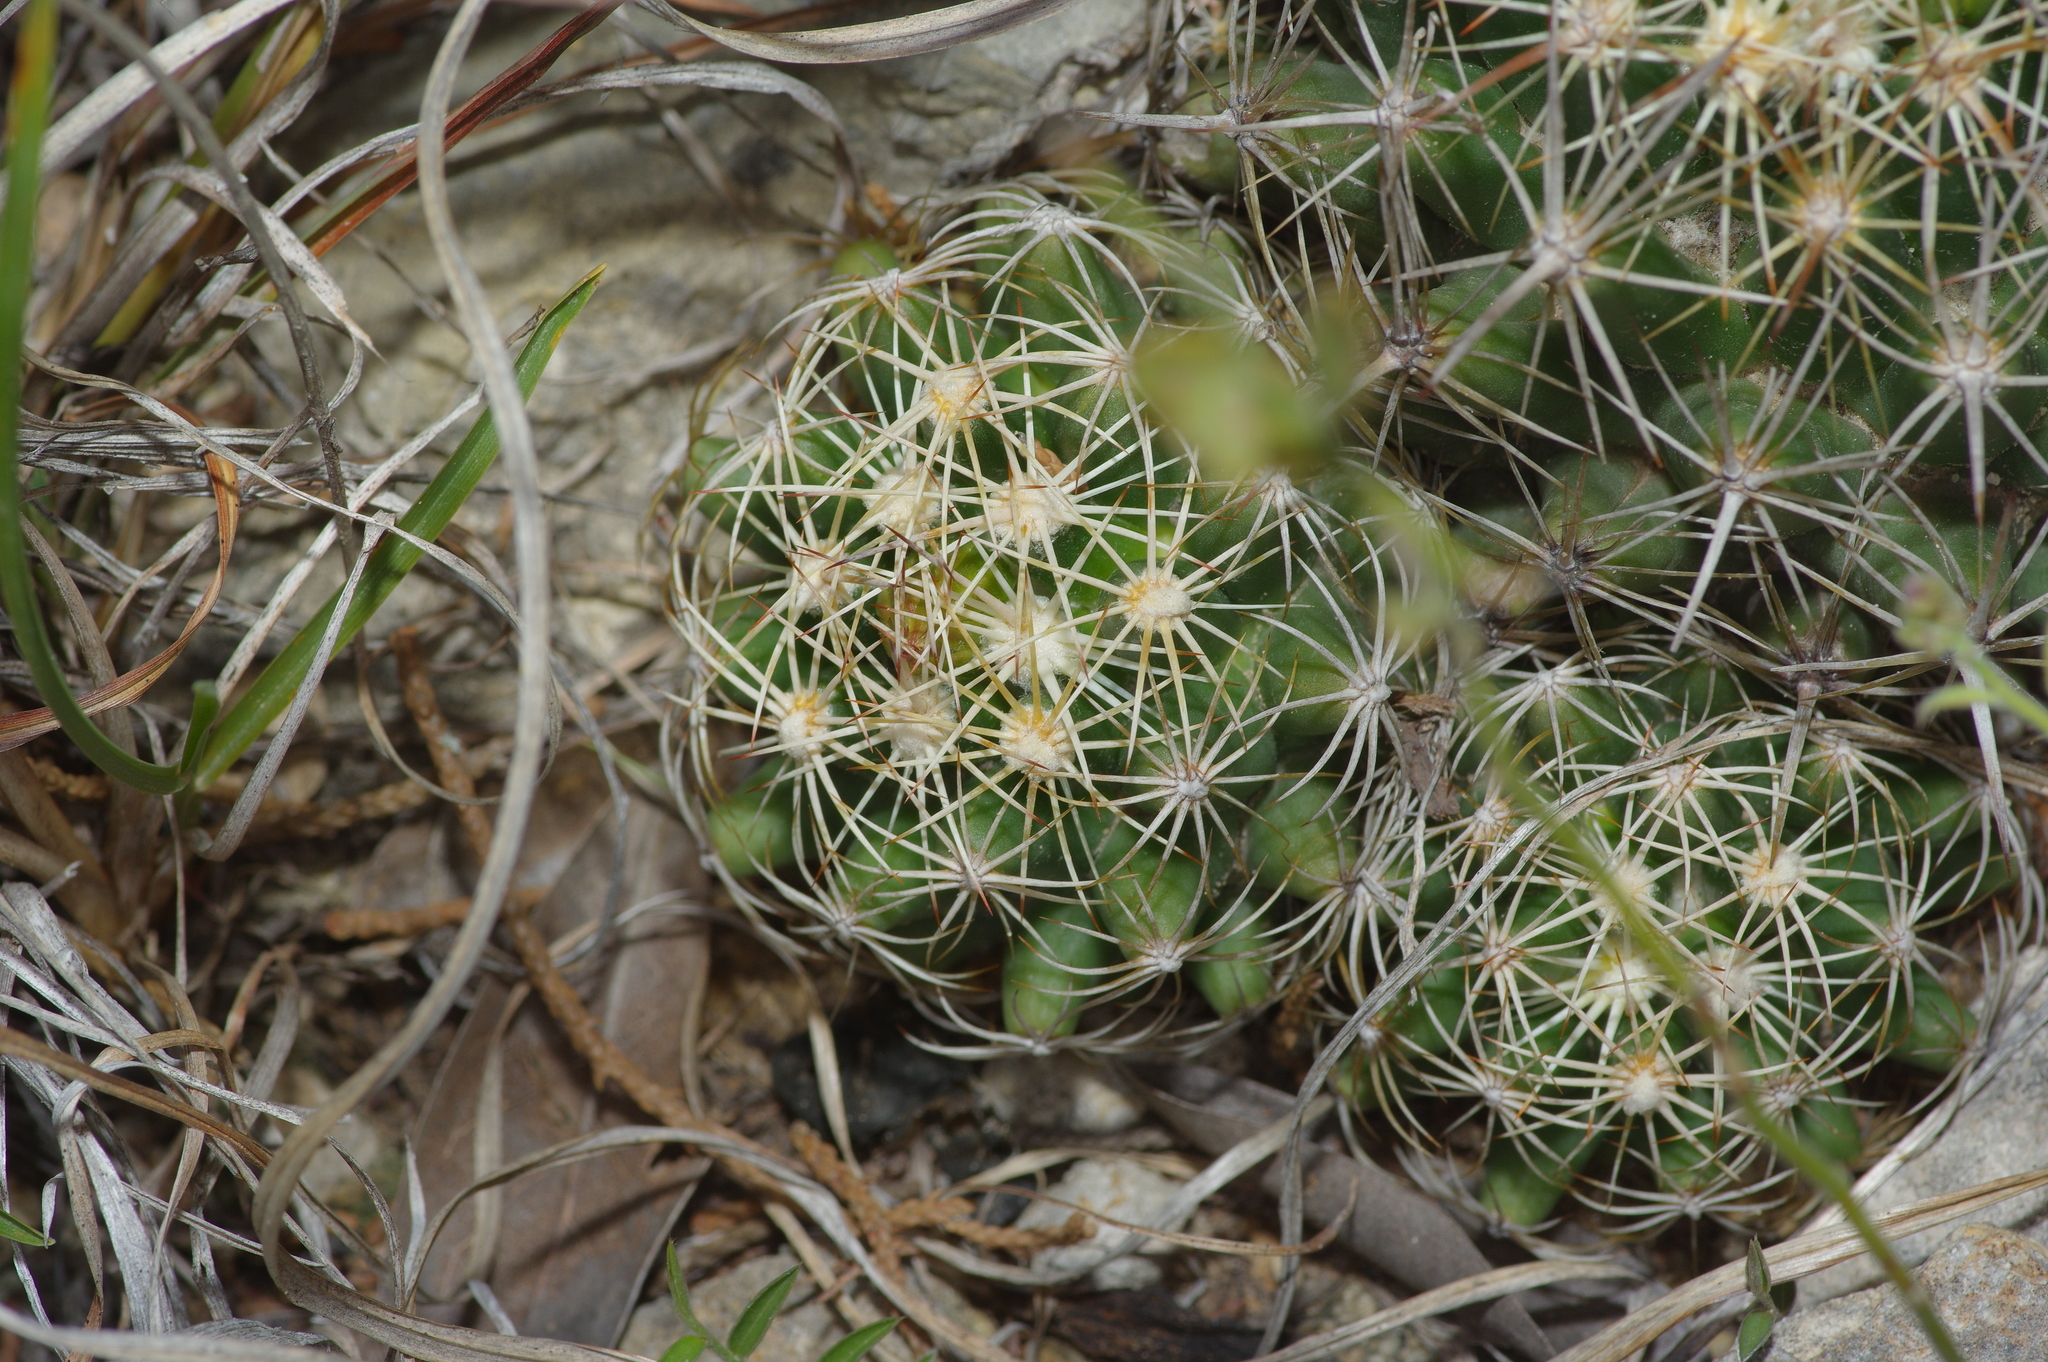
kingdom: Plantae
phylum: Tracheophyta
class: Magnoliopsida
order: Caryophyllales
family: Cactaceae
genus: Coryphantha
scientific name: Coryphantha sulcata
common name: Finger cactus
